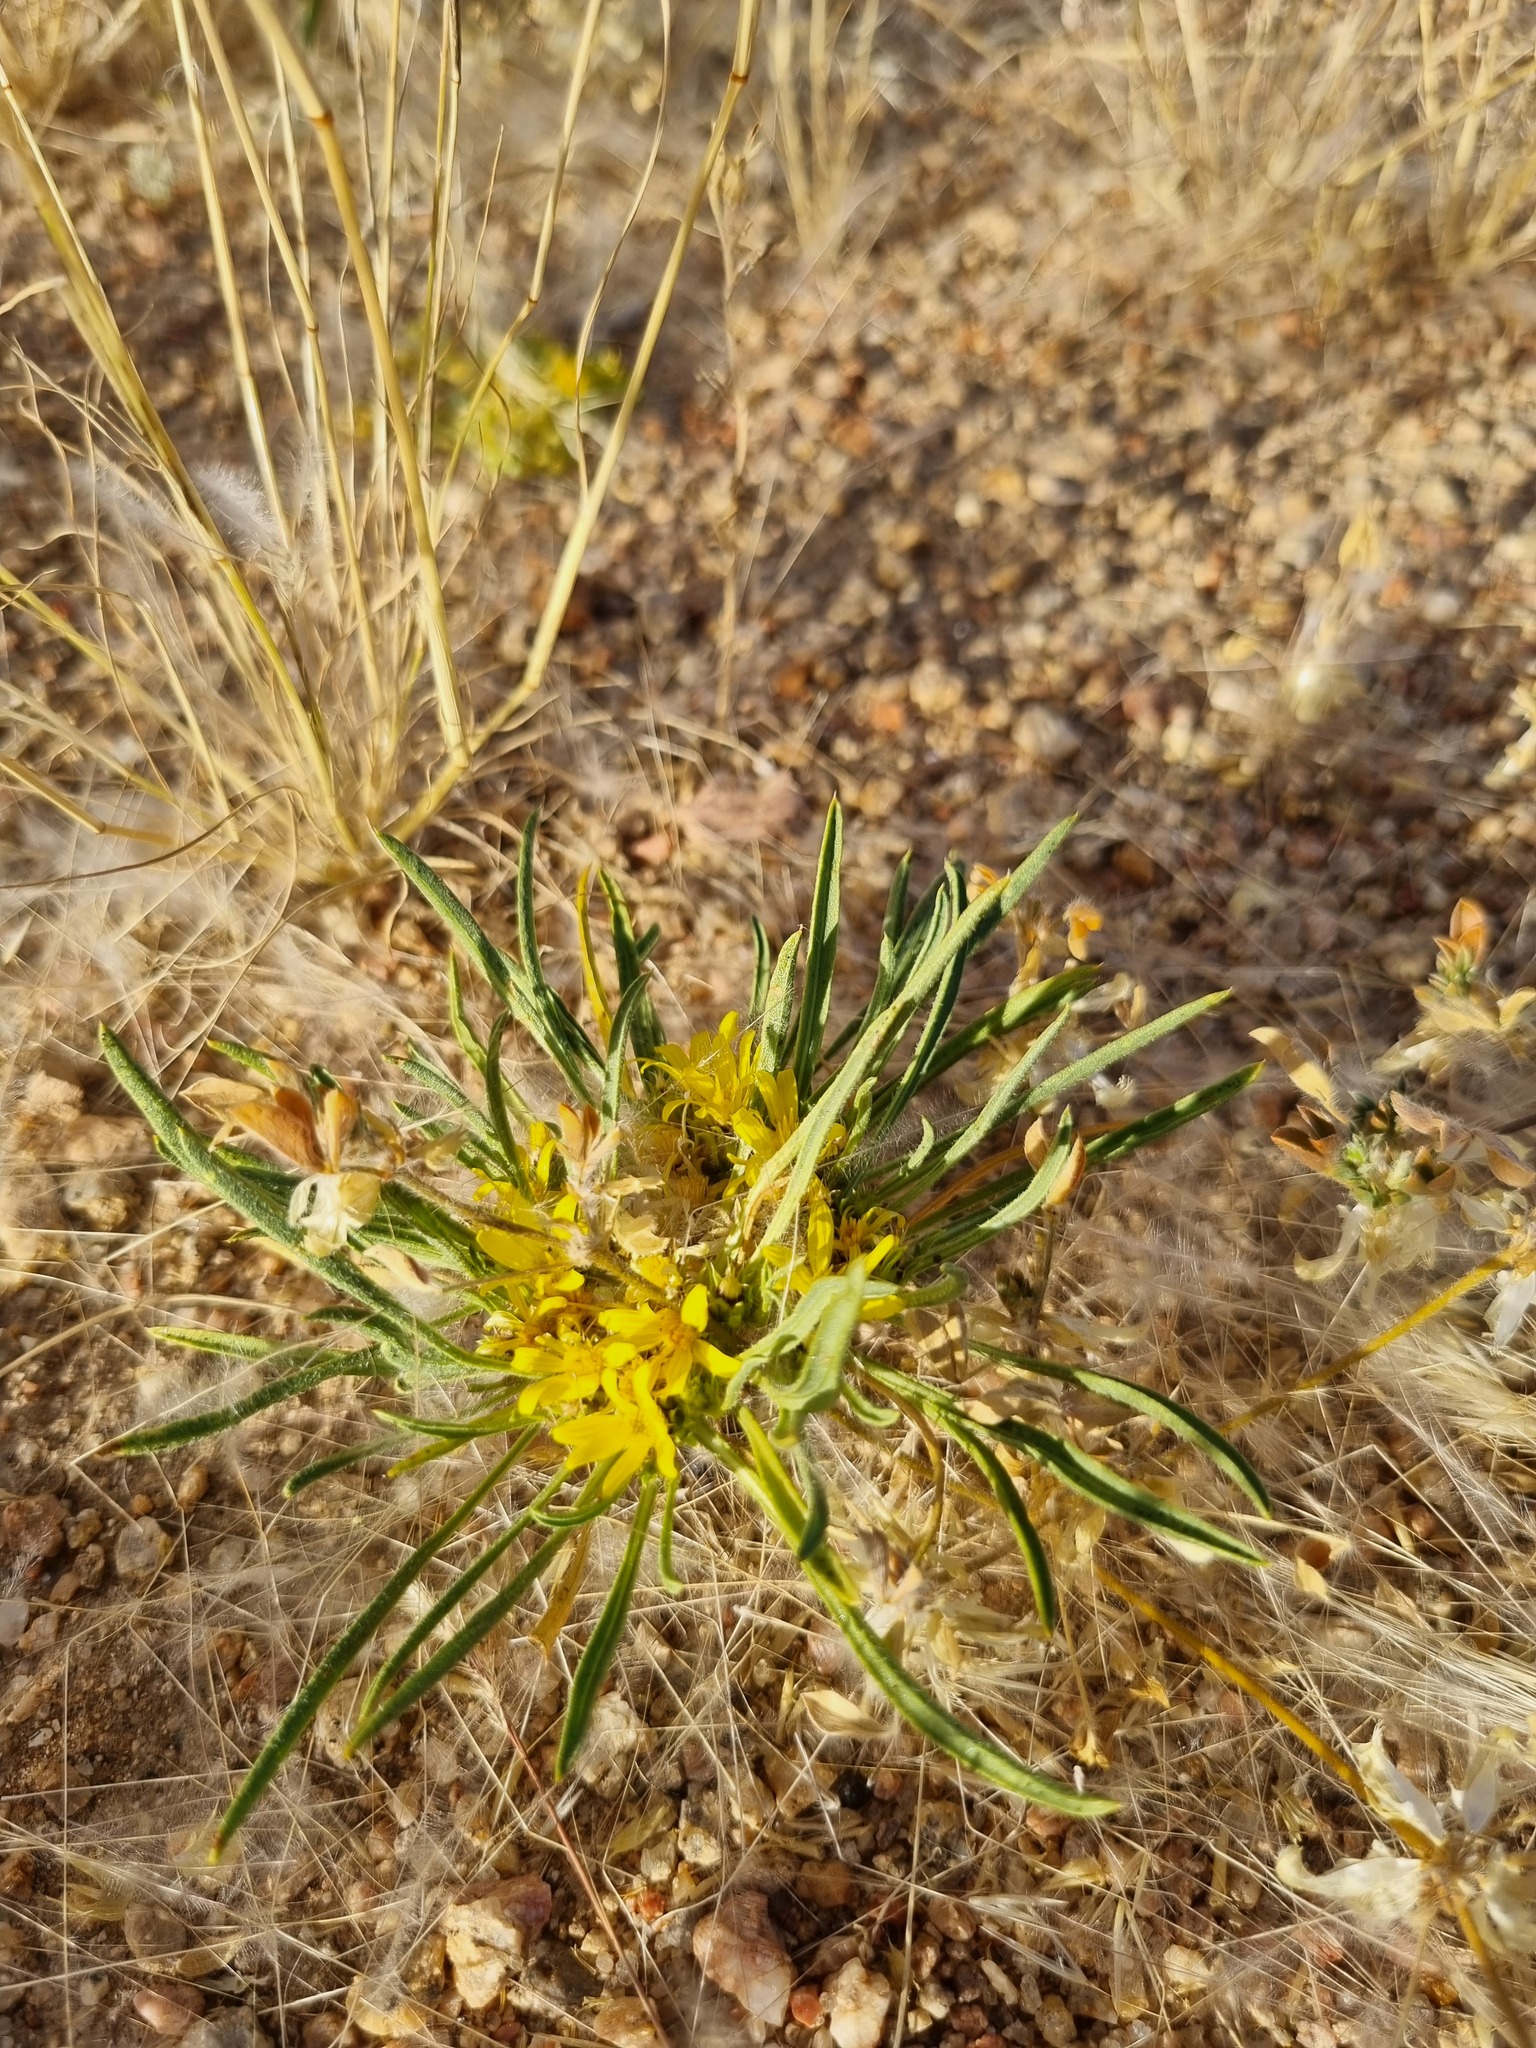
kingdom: Plantae
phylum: Tracheophyta
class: Magnoliopsida
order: Asterales
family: Asteraceae
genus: Geigeria
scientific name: Geigeria ornativa
